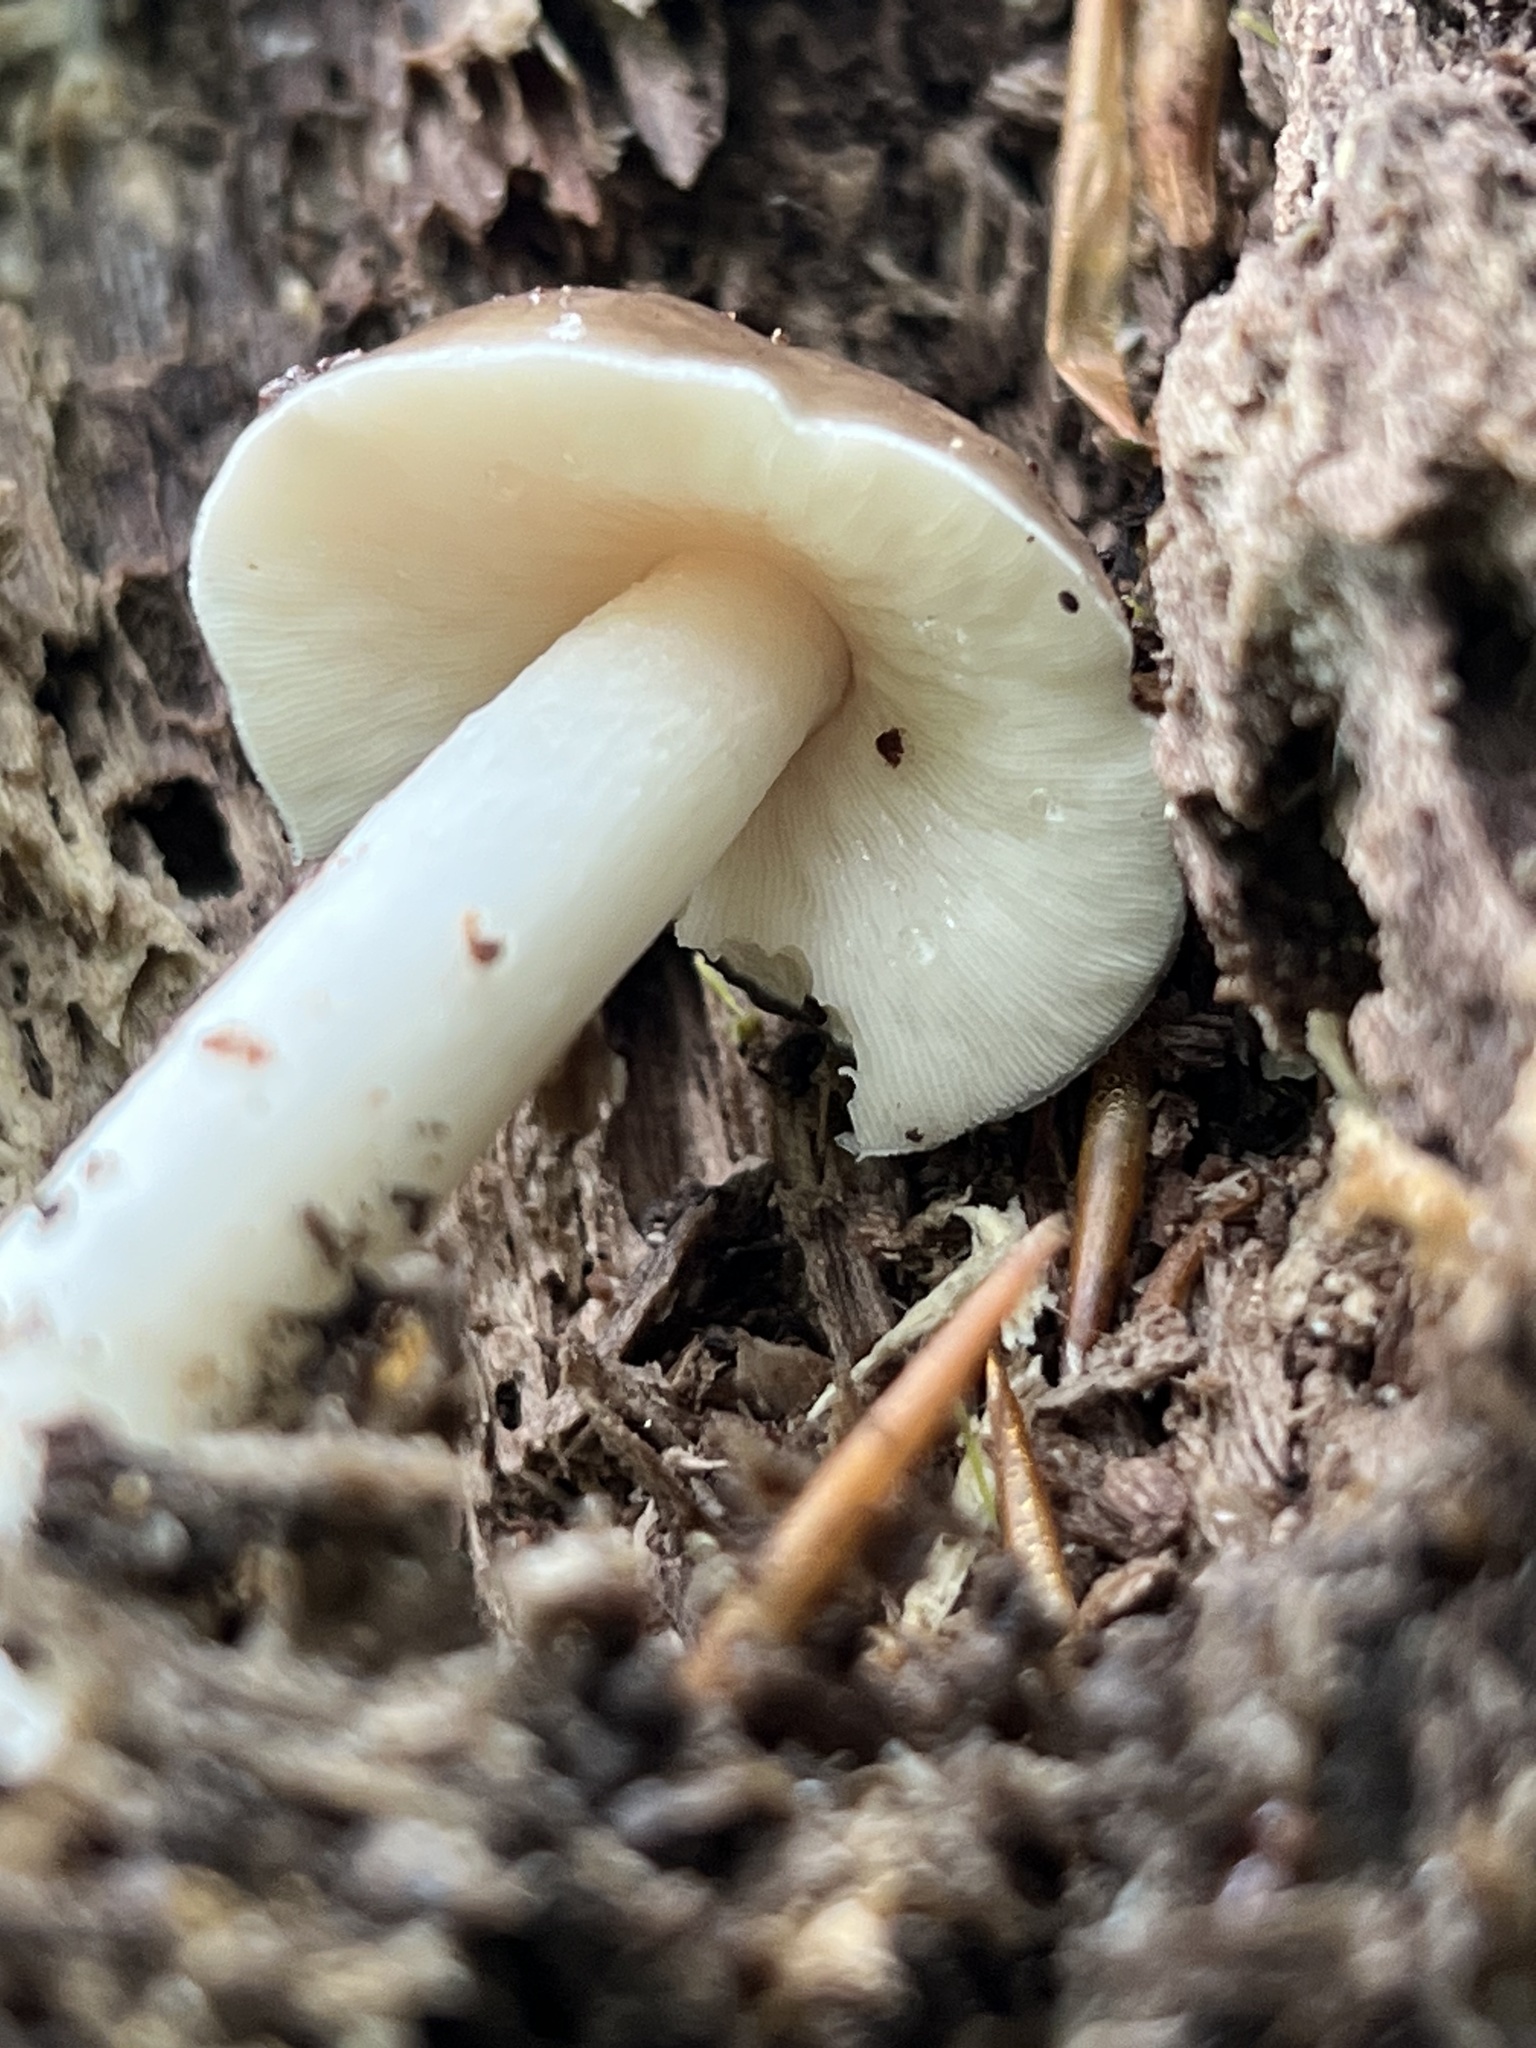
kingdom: Fungi
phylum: Basidiomycota
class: Agaricomycetes
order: Agaricales
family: Pluteaceae
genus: Pluteus
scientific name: Pluteus cervinus
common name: Deer shield
